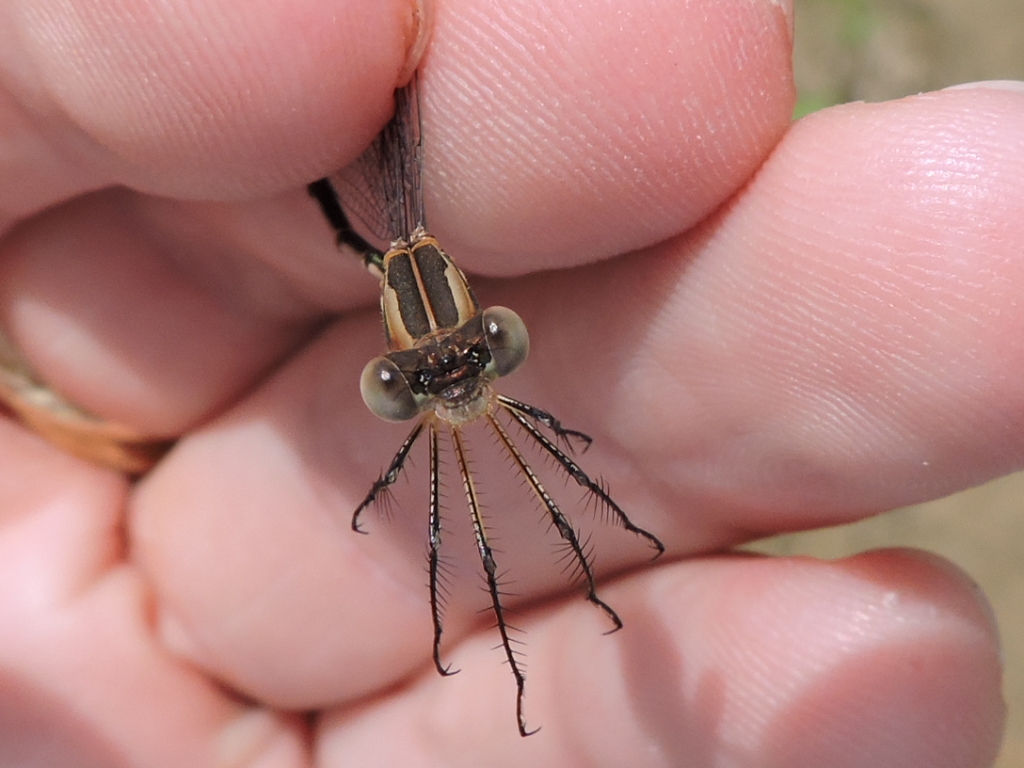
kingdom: Animalia
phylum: Arthropoda
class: Insecta
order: Odonata
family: Lestidae
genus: Lestes
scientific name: Lestes australis
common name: Southern spreadwing
